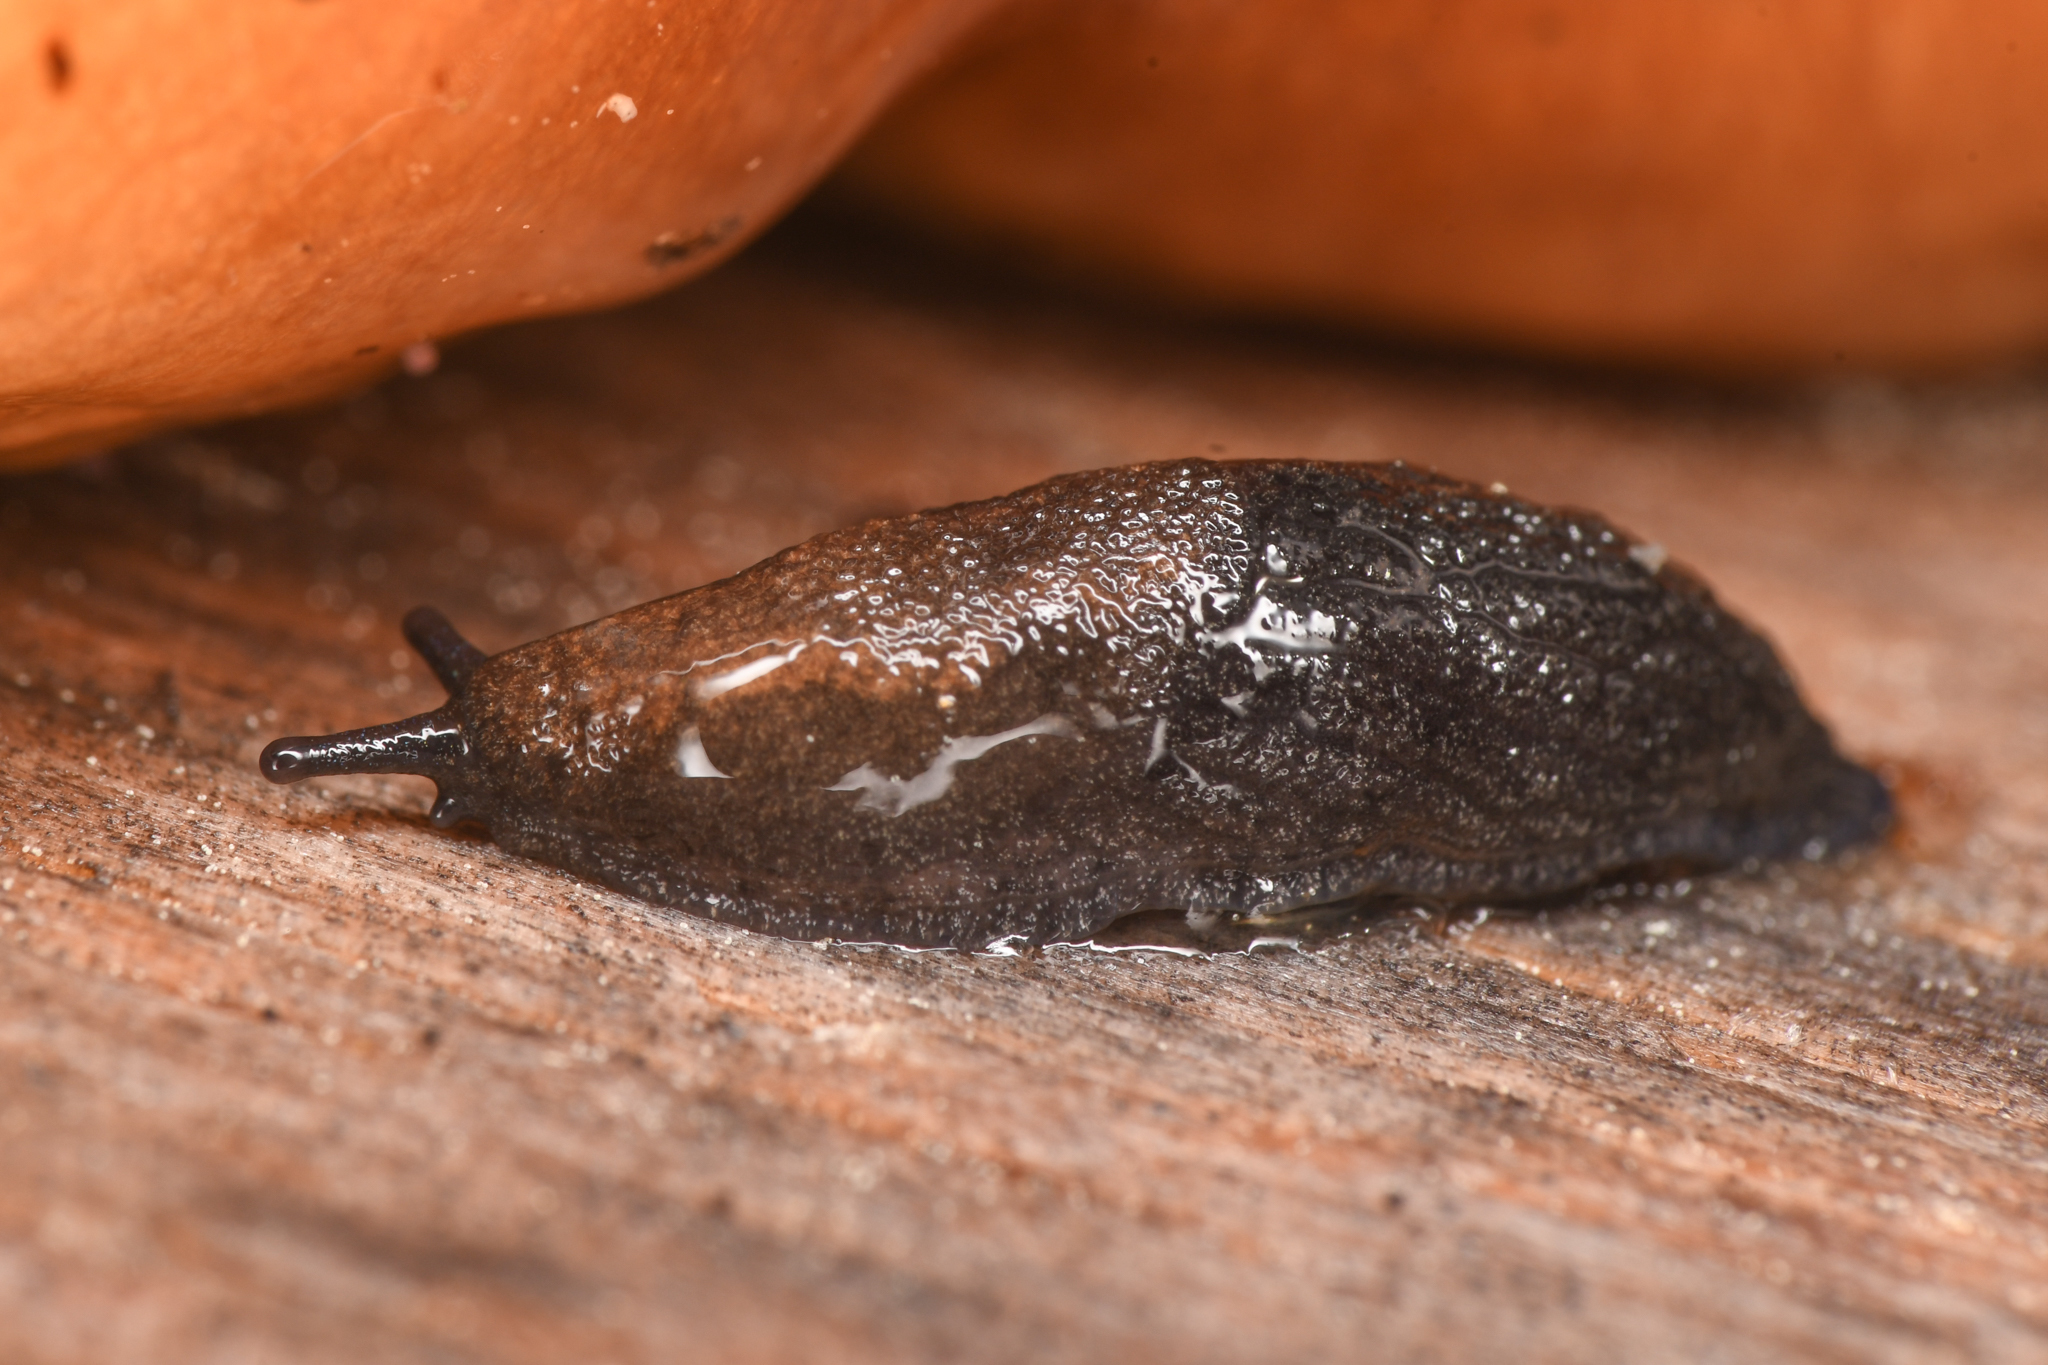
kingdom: Animalia
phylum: Mollusca
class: Gastropoda
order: Stylommatophora
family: Ariolimacidae
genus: Anadenulus
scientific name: Anadenulus cockerelli
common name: American keeled slug
